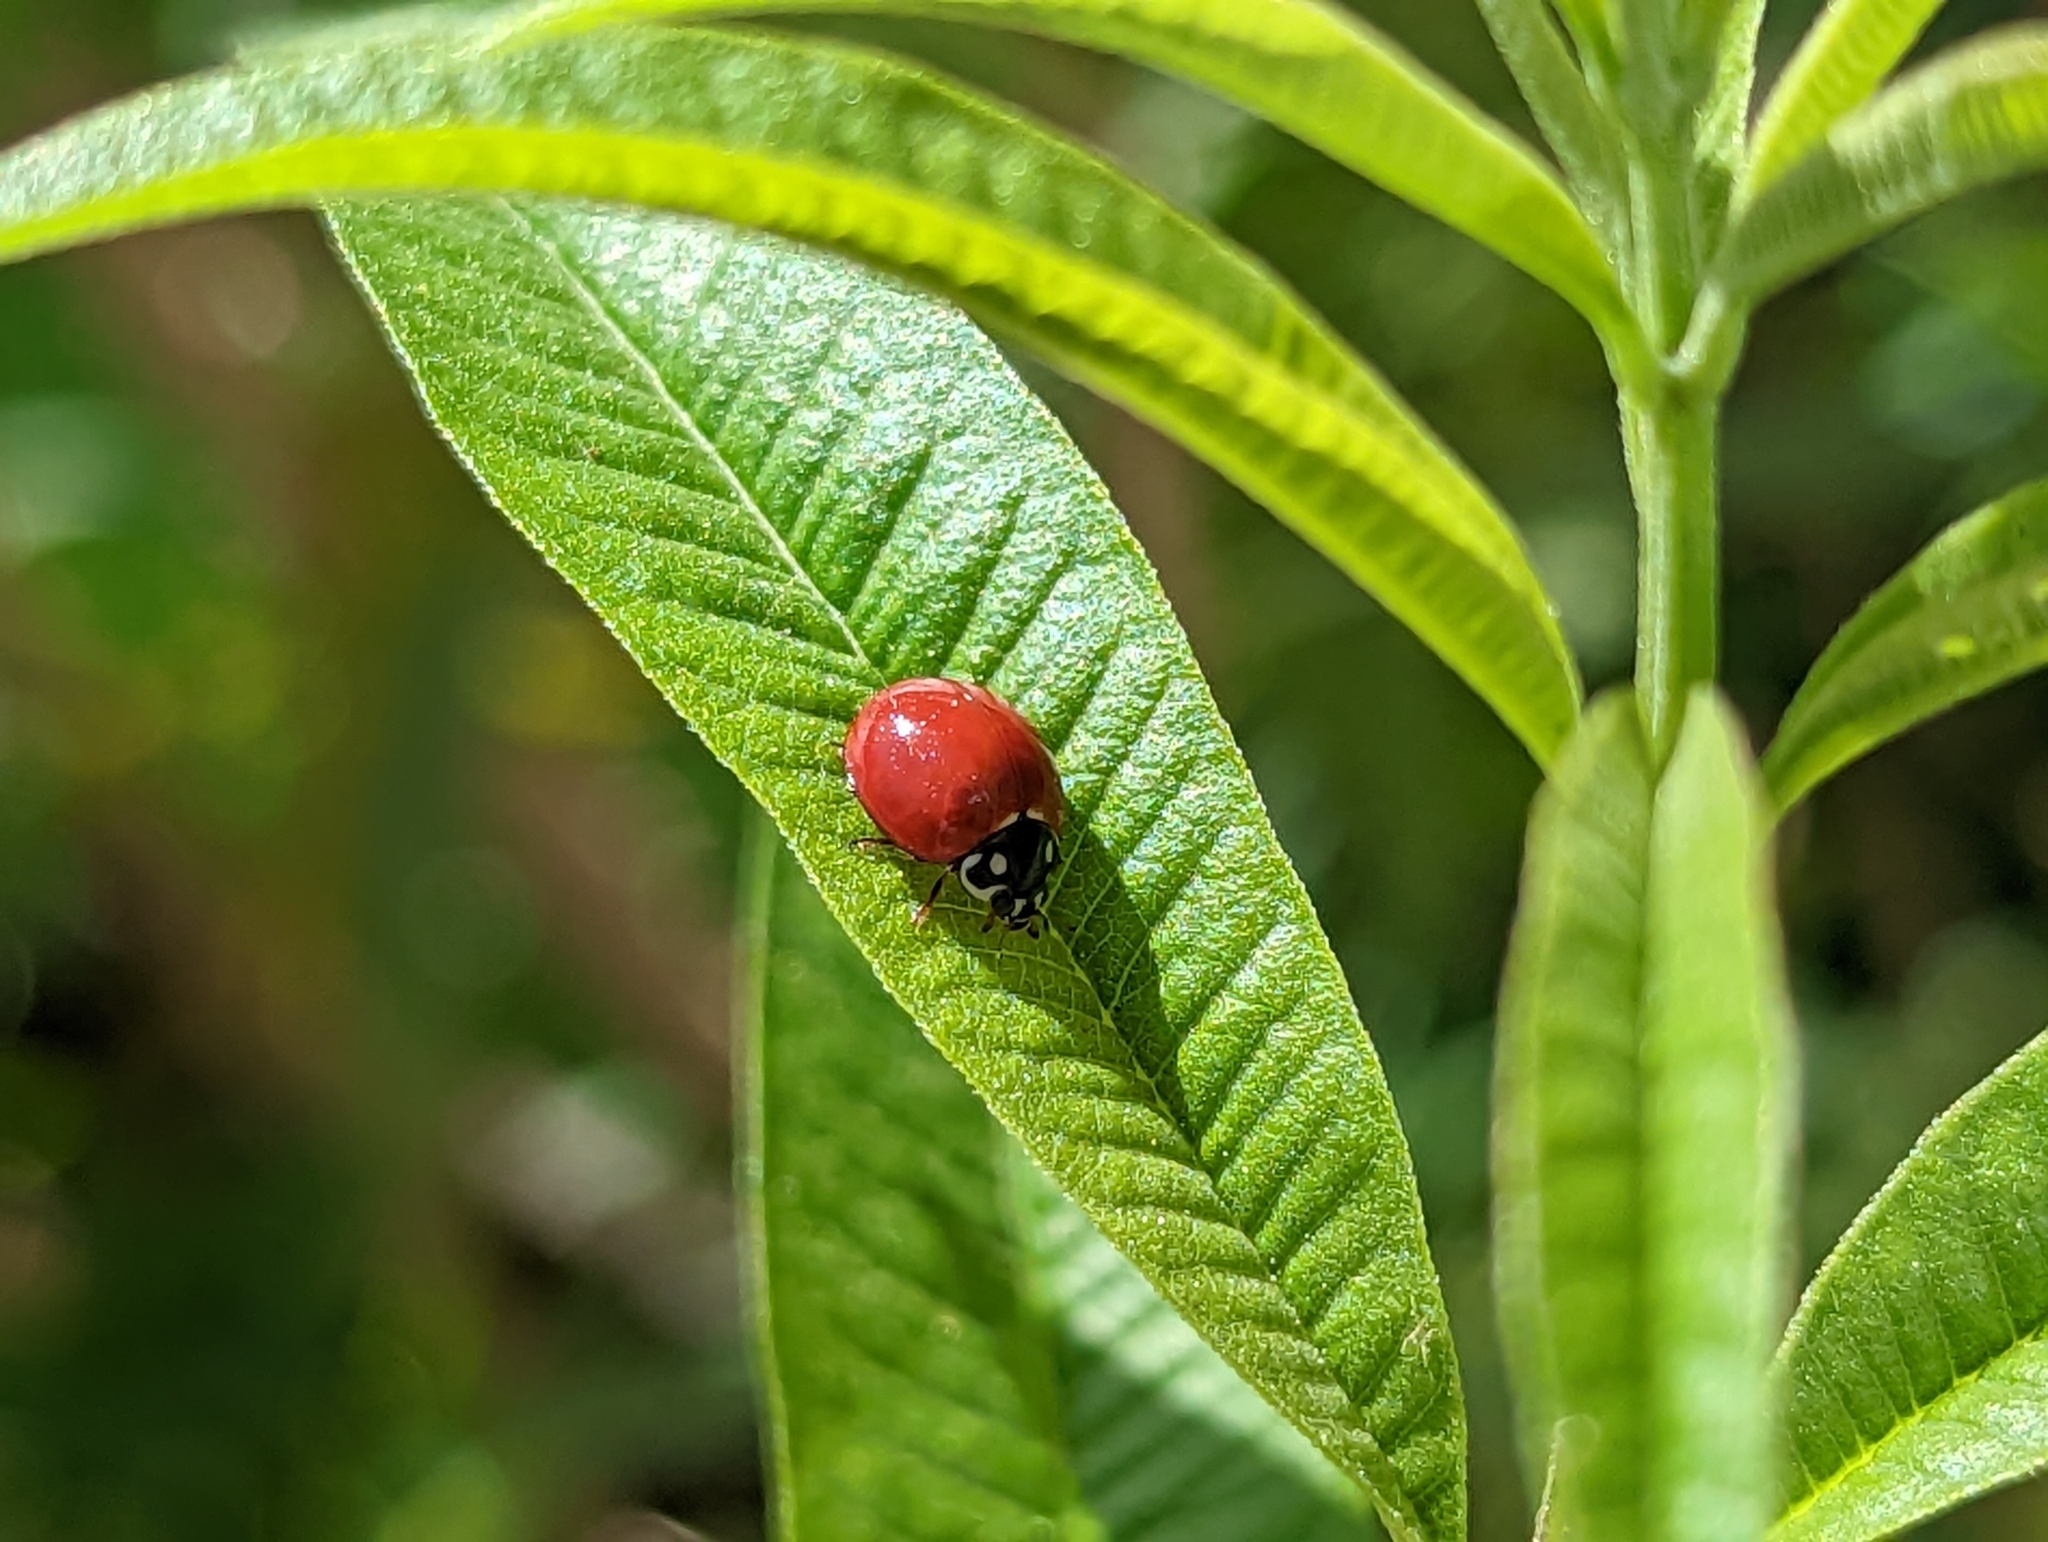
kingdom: Animalia
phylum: Arthropoda
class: Insecta
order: Coleoptera
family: Coccinellidae
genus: Cycloneda
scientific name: Cycloneda sanguinea
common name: Ladybird beetle
